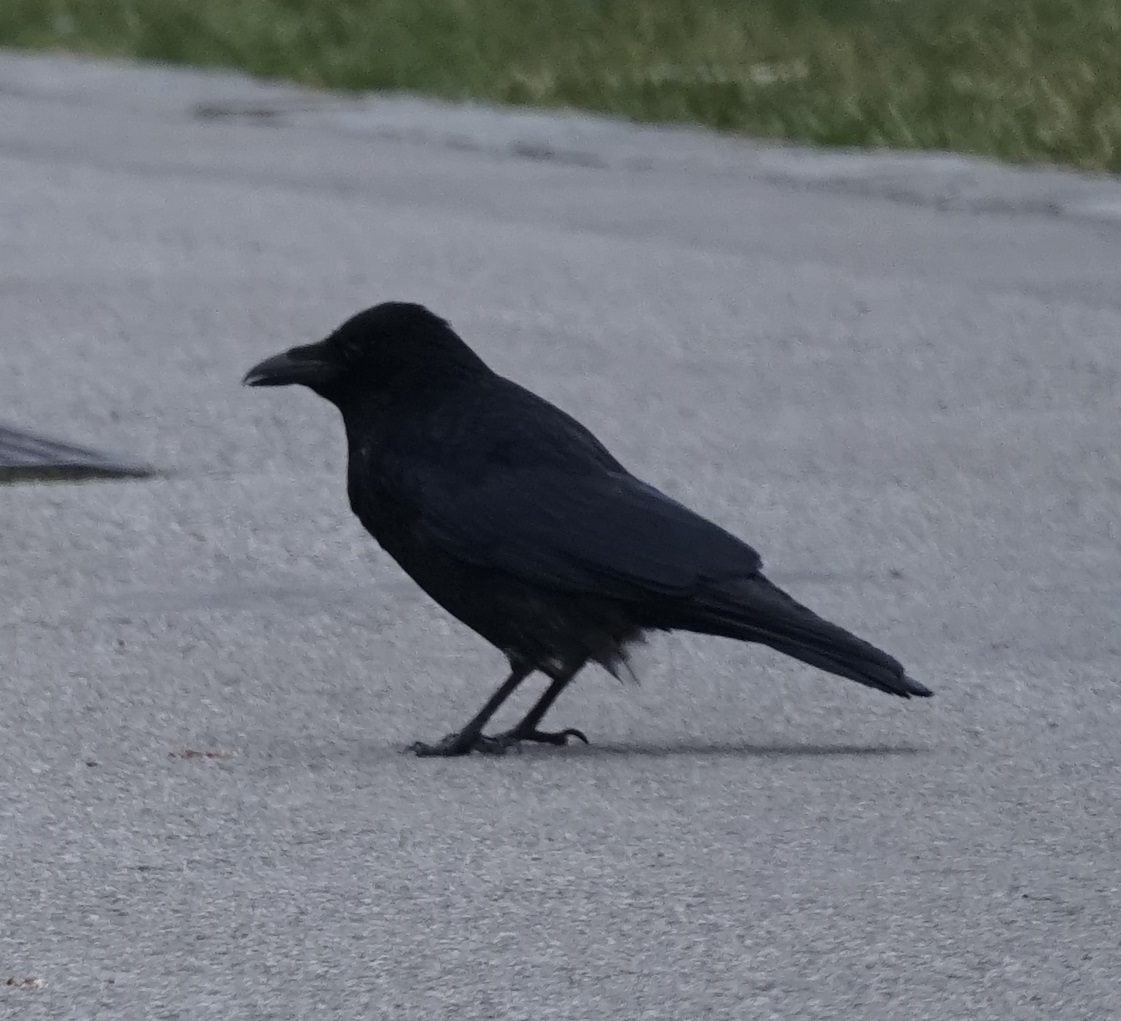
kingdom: Animalia
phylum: Chordata
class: Aves
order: Passeriformes
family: Corvidae
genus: Corvus
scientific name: Corvus corone
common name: Carrion crow
